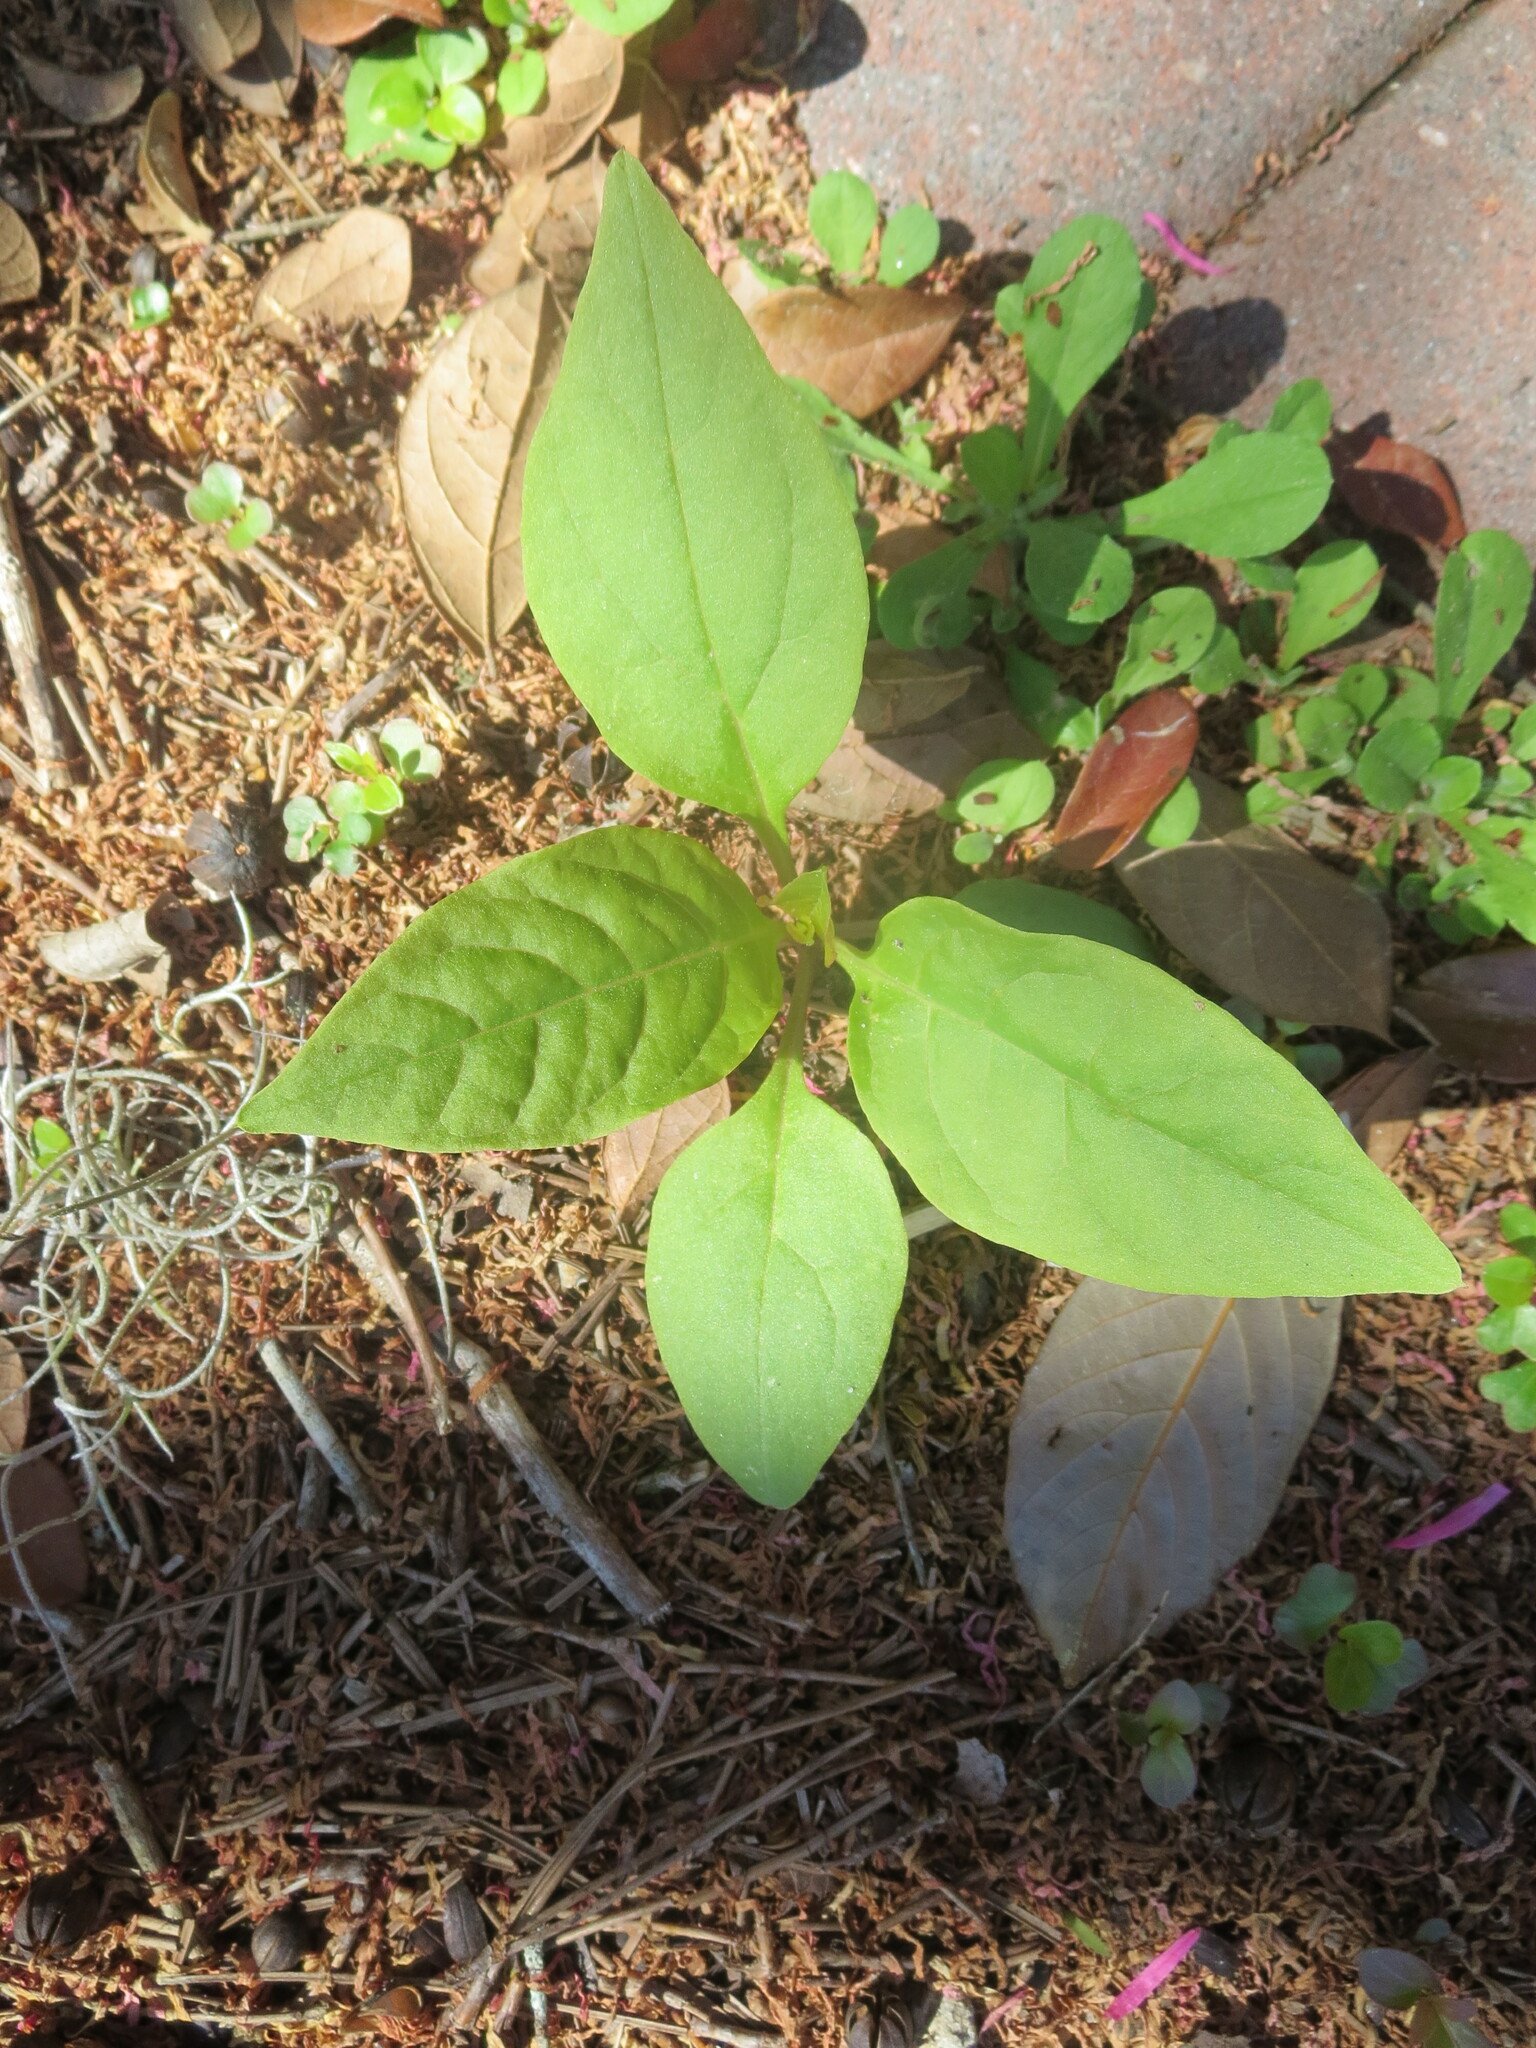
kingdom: Plantae
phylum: Tracheophyta
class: Magnoliopsida
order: Caryophyllales
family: Phytolaccaceae
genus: Phytolacca
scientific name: Phytolacca americana
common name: American pokeweed
